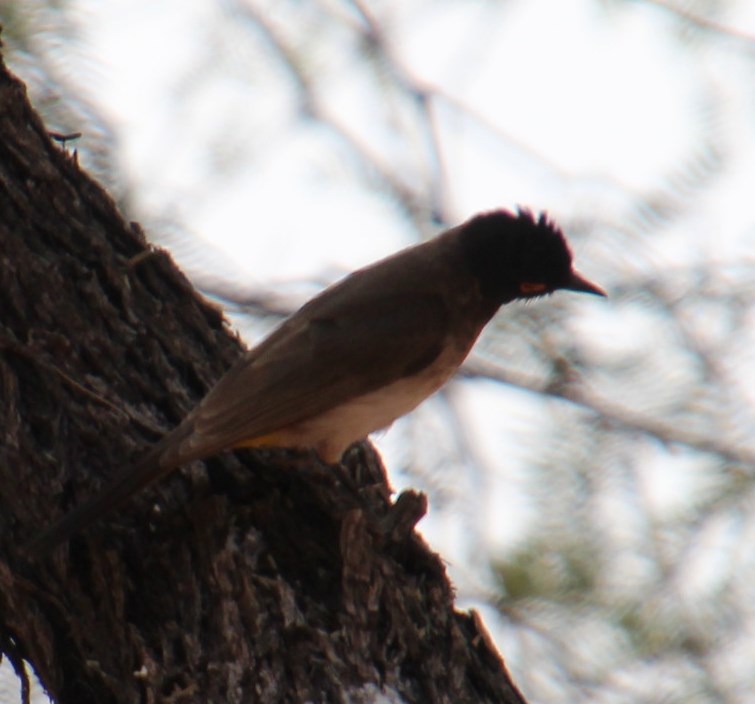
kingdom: Animalia
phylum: Chordata
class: Aves
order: Passeriformes
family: Pycnonotidae
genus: Pycnonotus
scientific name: Pycnonotus nigricans
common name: African red-eyed bulbul
